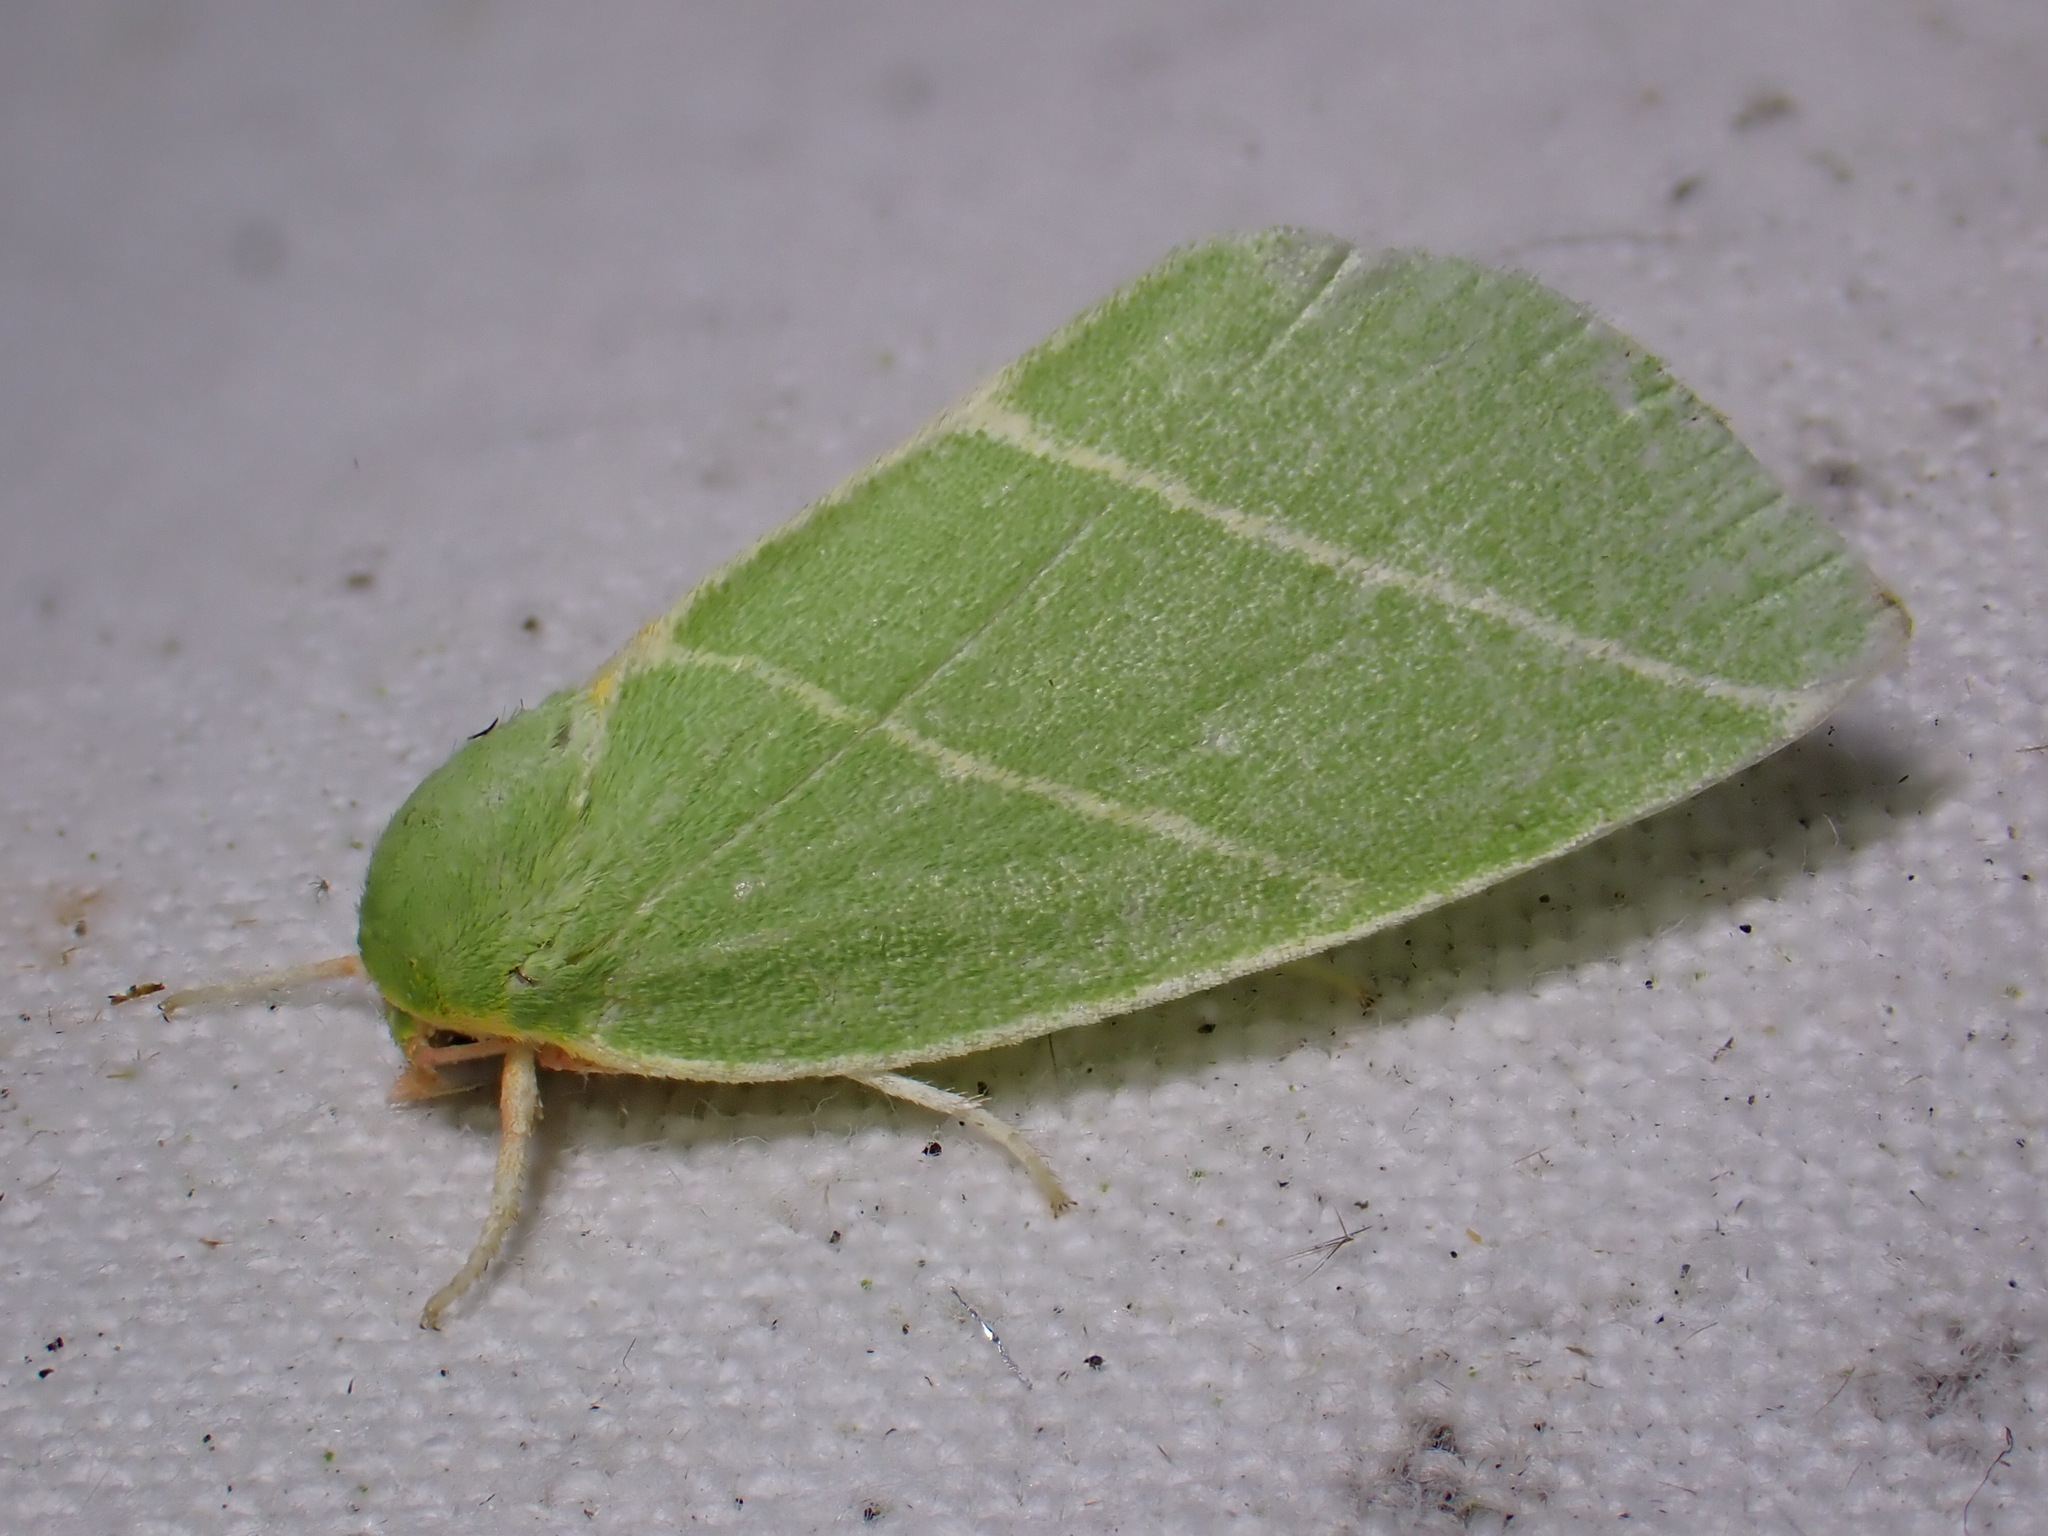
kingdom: Animalia
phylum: Arthropoda
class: Insecta
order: Lepidoptera
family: Nolidae
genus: Bena
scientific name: Bena bicolorana
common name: Scarce silver-lines
